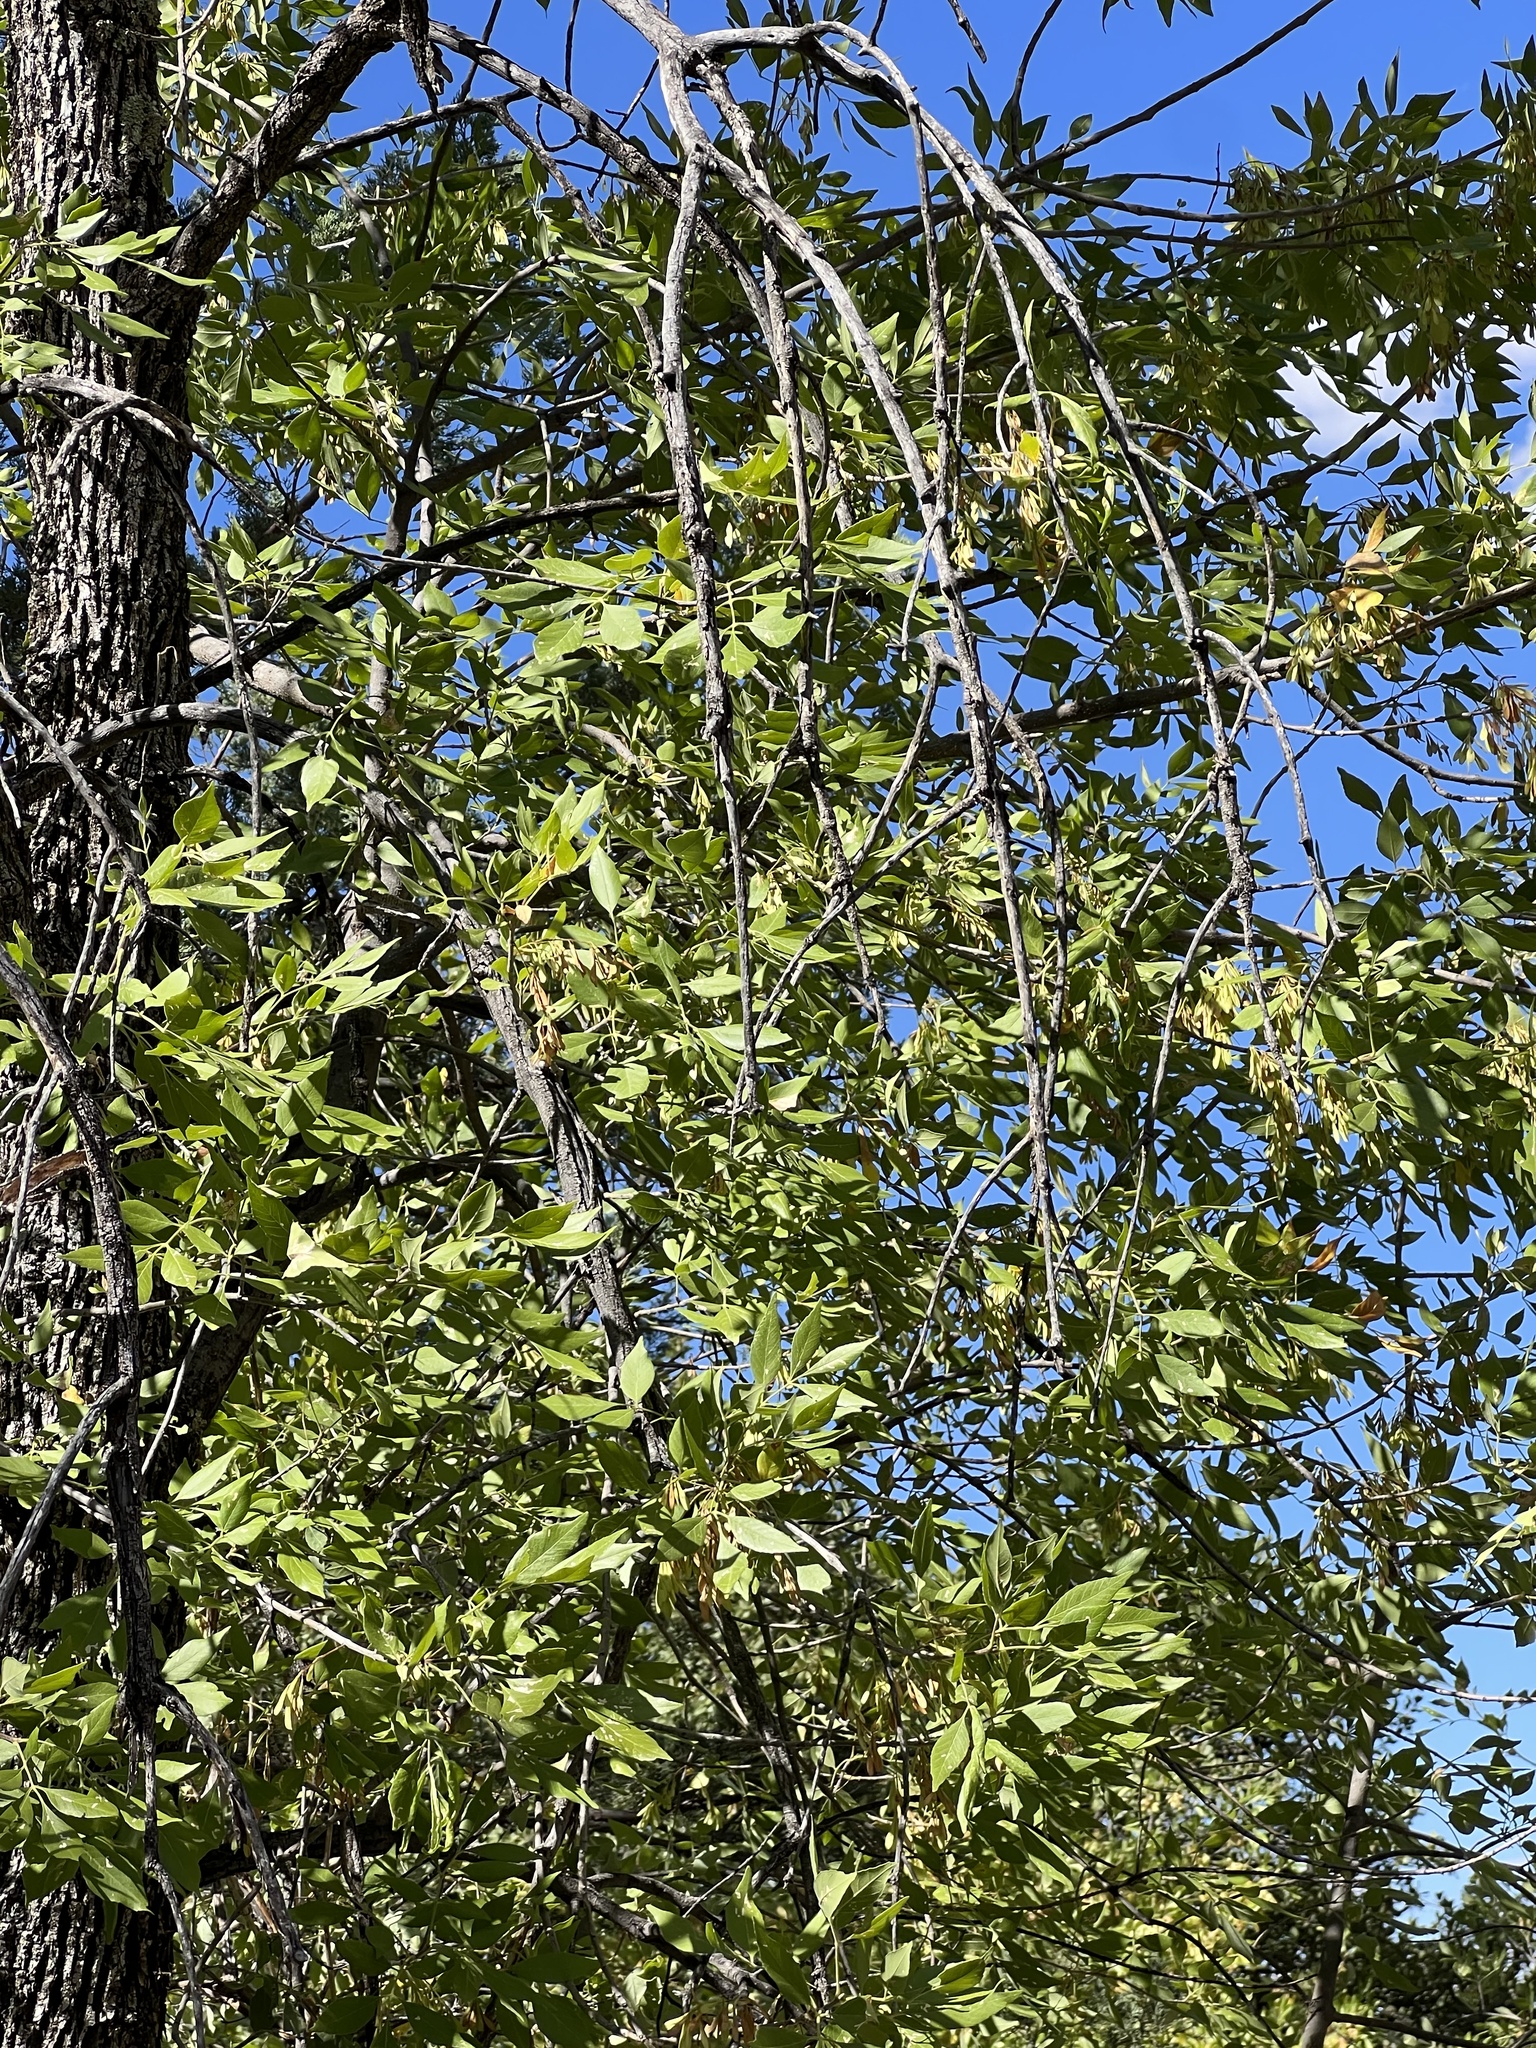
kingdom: Plantae
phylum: Tracheophyta
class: Magnoliopsida
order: Lamiales
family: Oleaceae
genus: Fraxinus
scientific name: Fraxinus velutina
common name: Arizon ash
